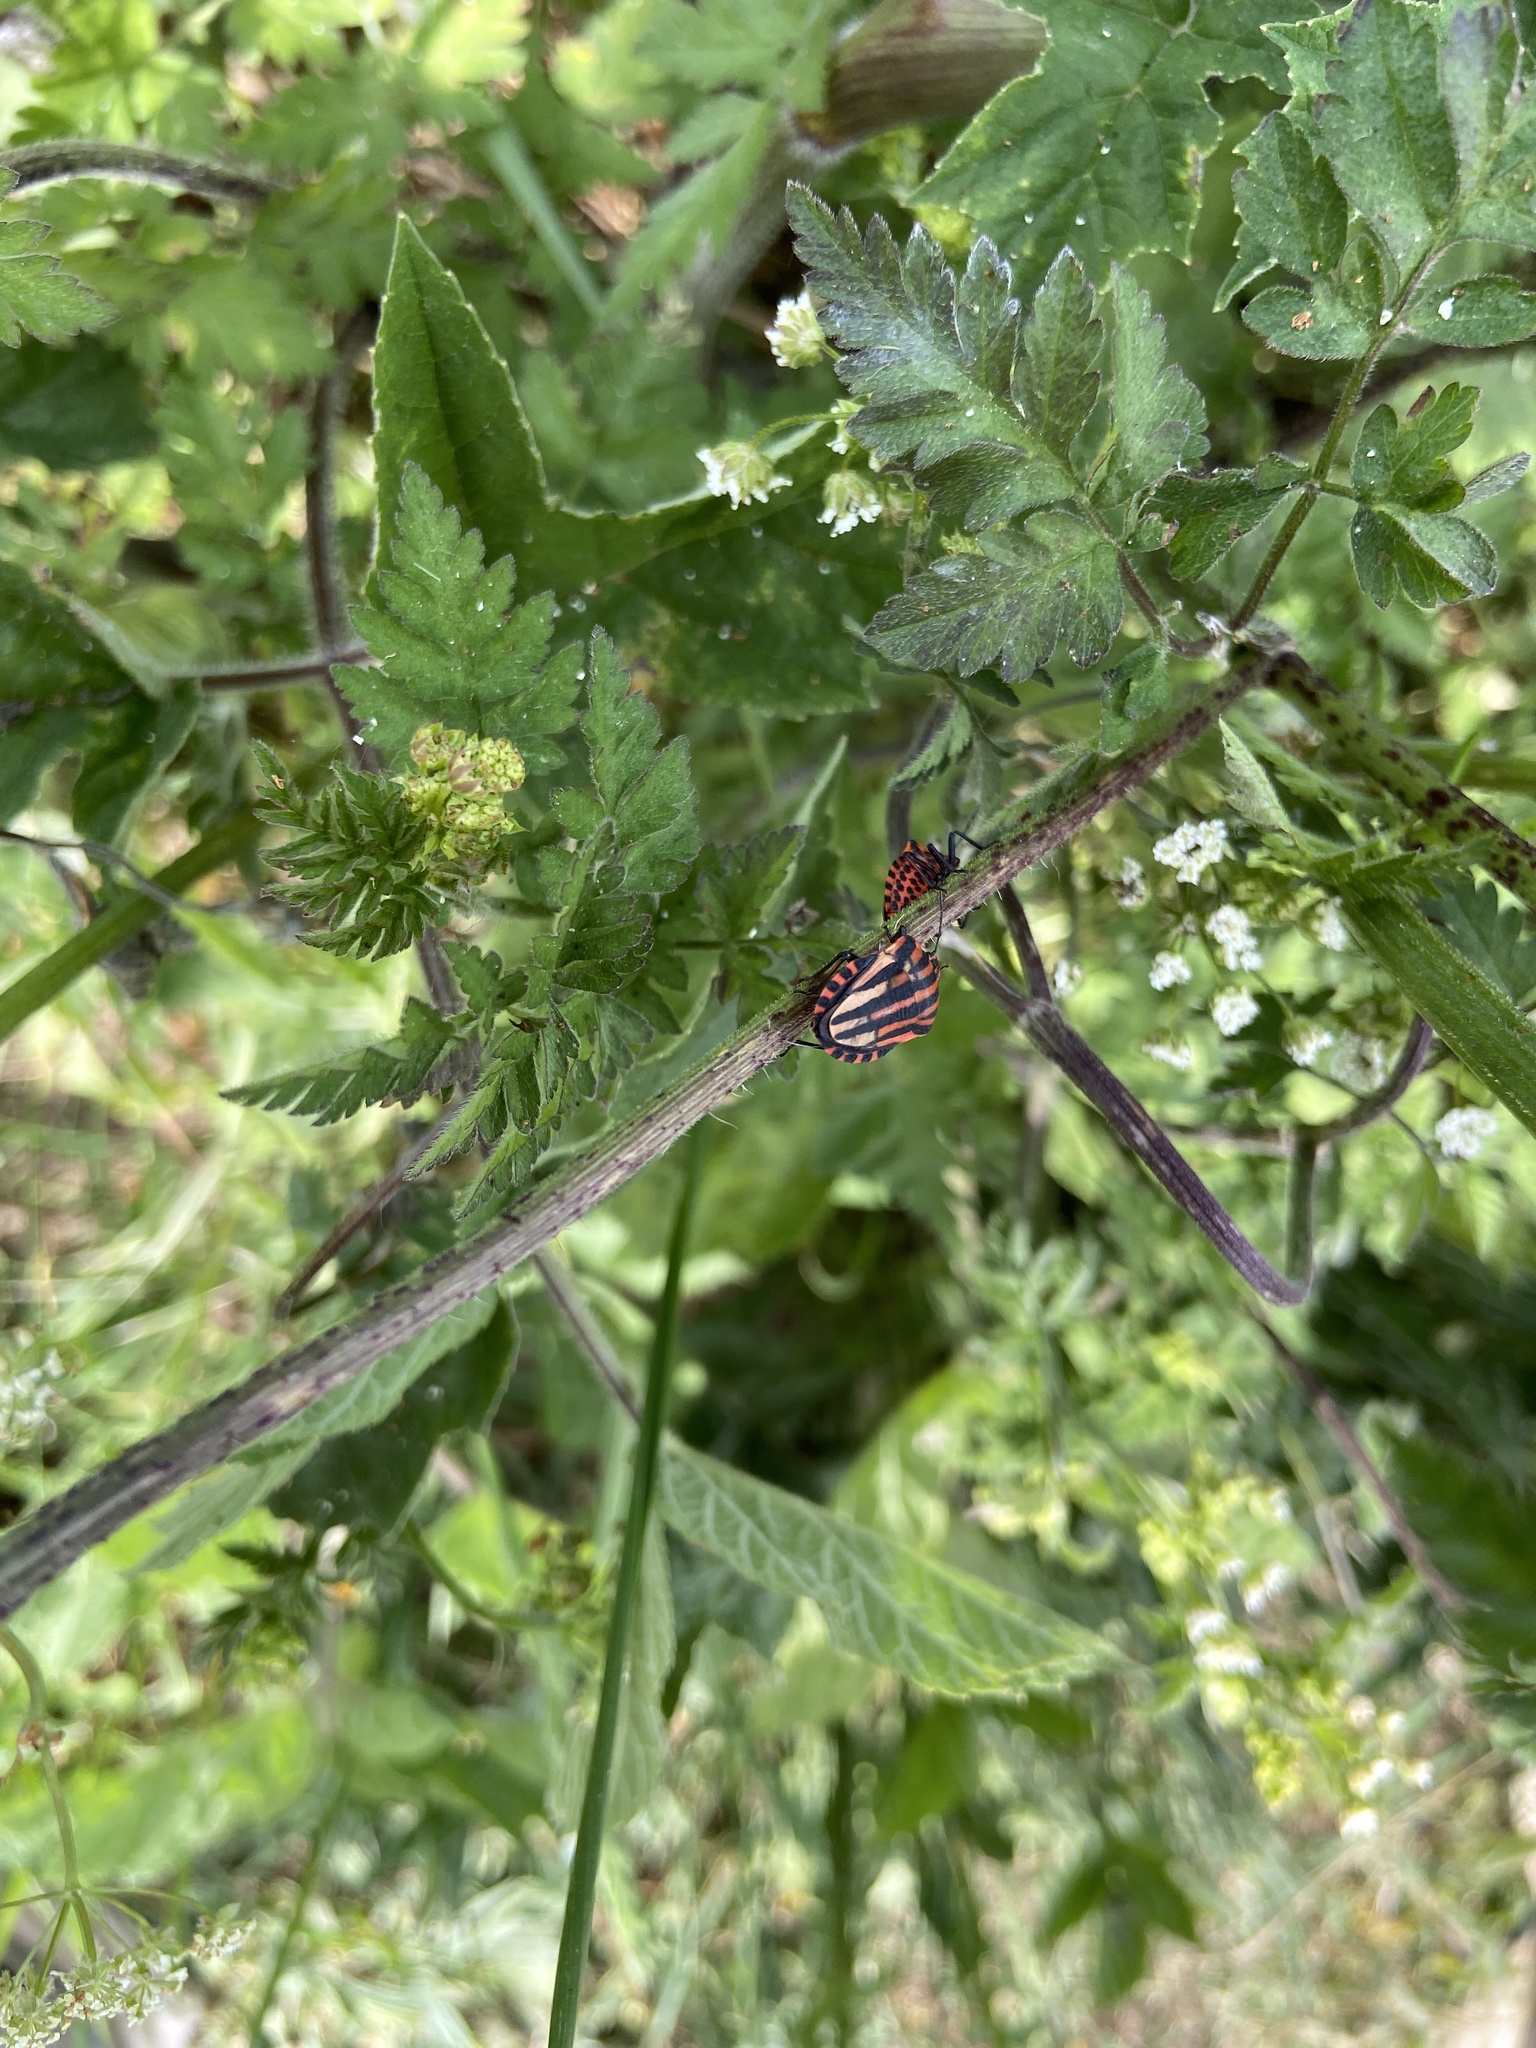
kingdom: Animalia
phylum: Arthropoda
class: Insecta
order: Hemiptera
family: Pentatomidae
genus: Graphosoma
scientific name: Graphosoma italicum
